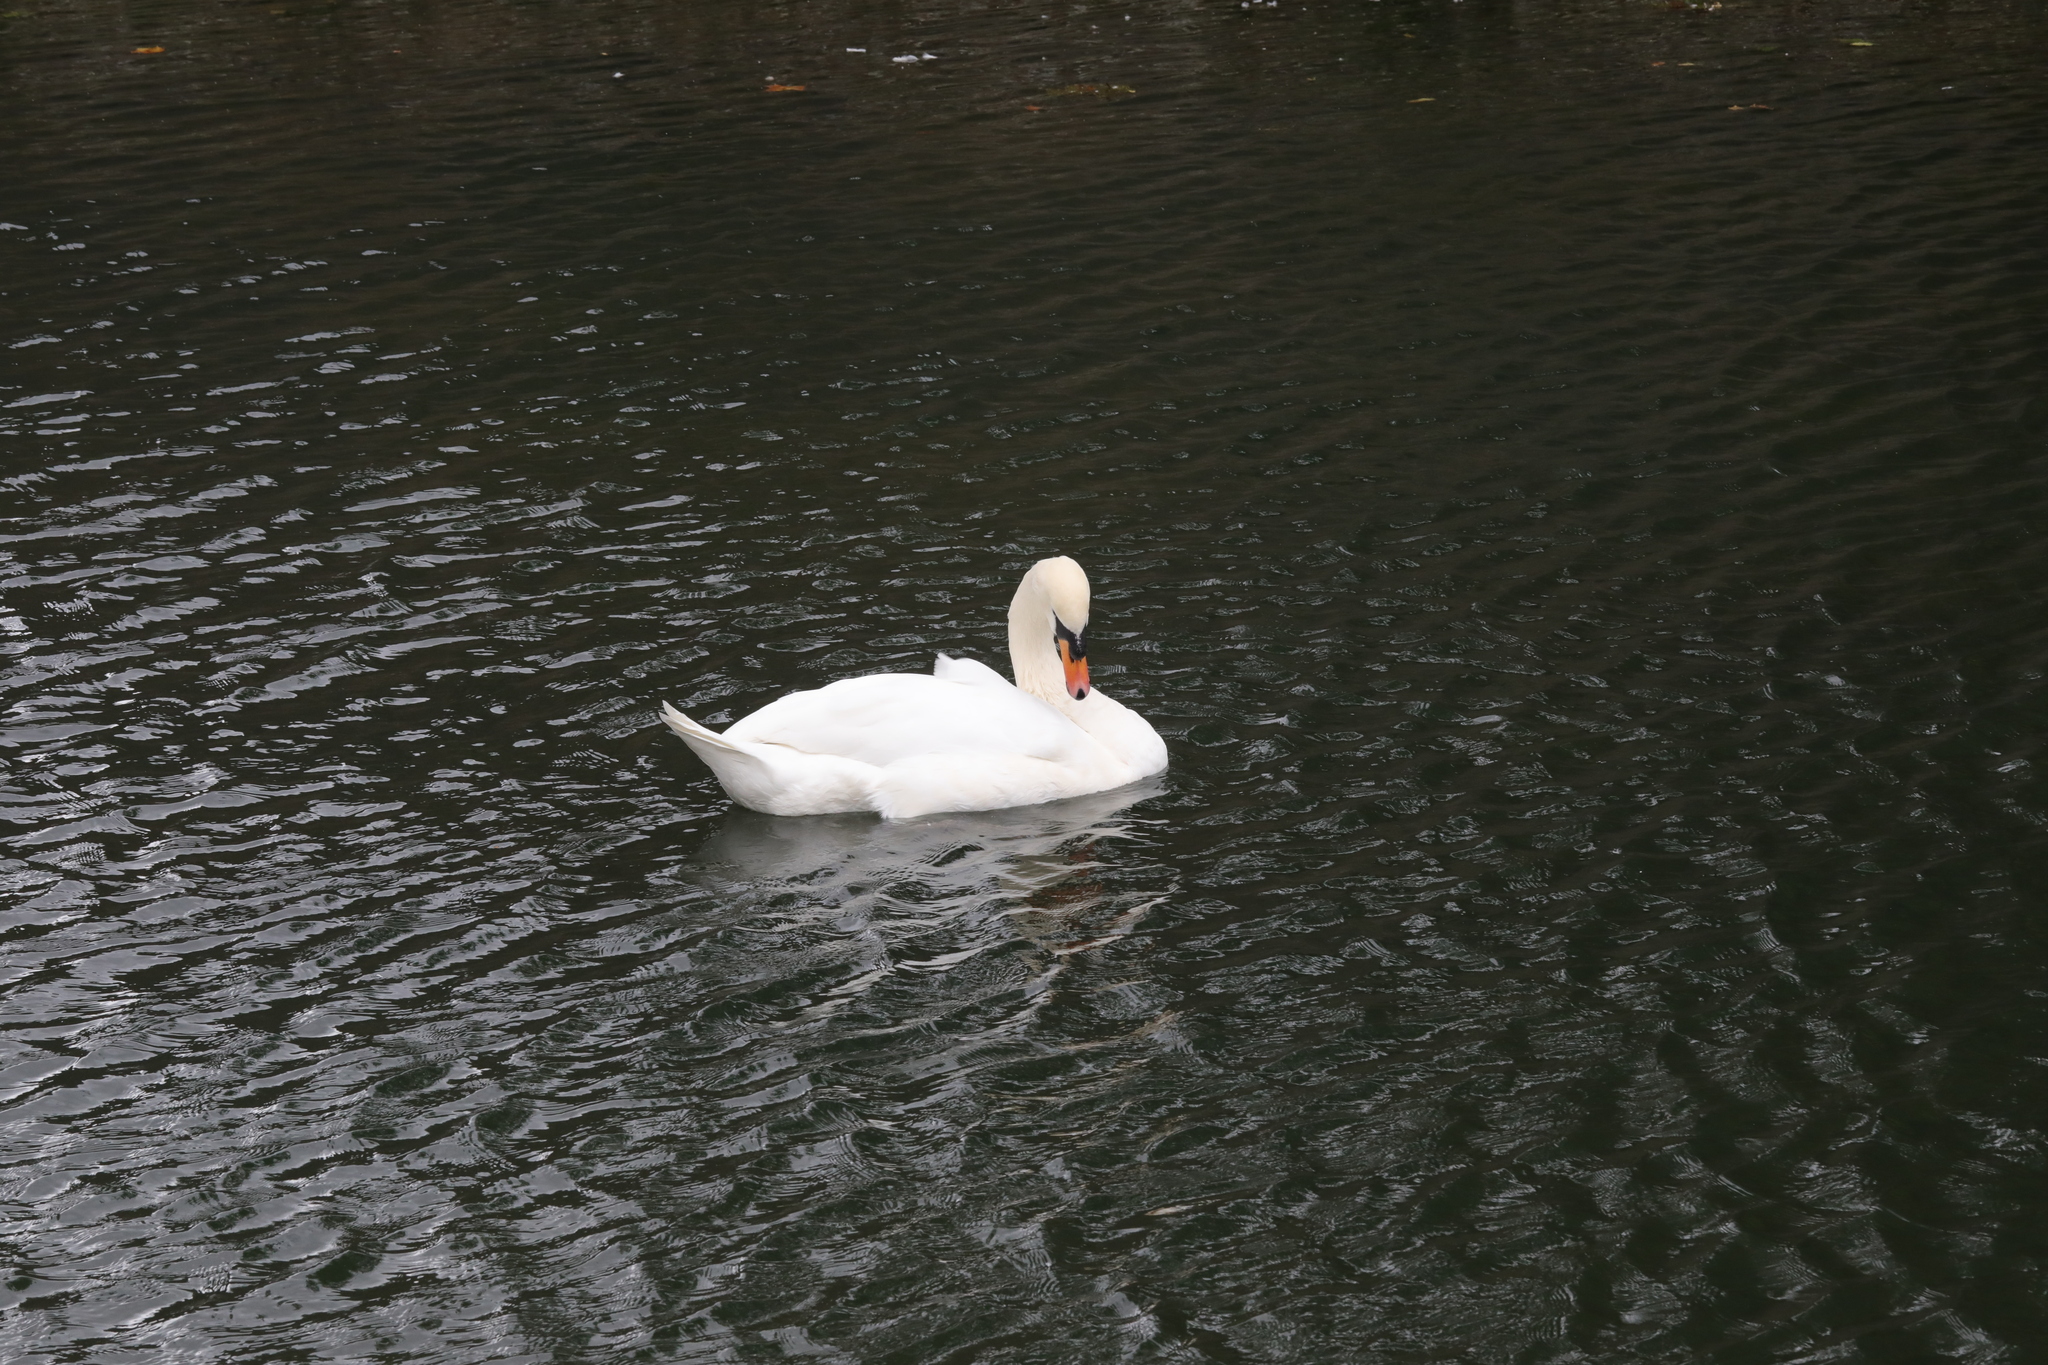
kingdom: Animalia
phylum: Chordata
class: Aves
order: Anseriformes
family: Anatidae
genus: Cygnus
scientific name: Cygnus olor
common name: Mute swan
